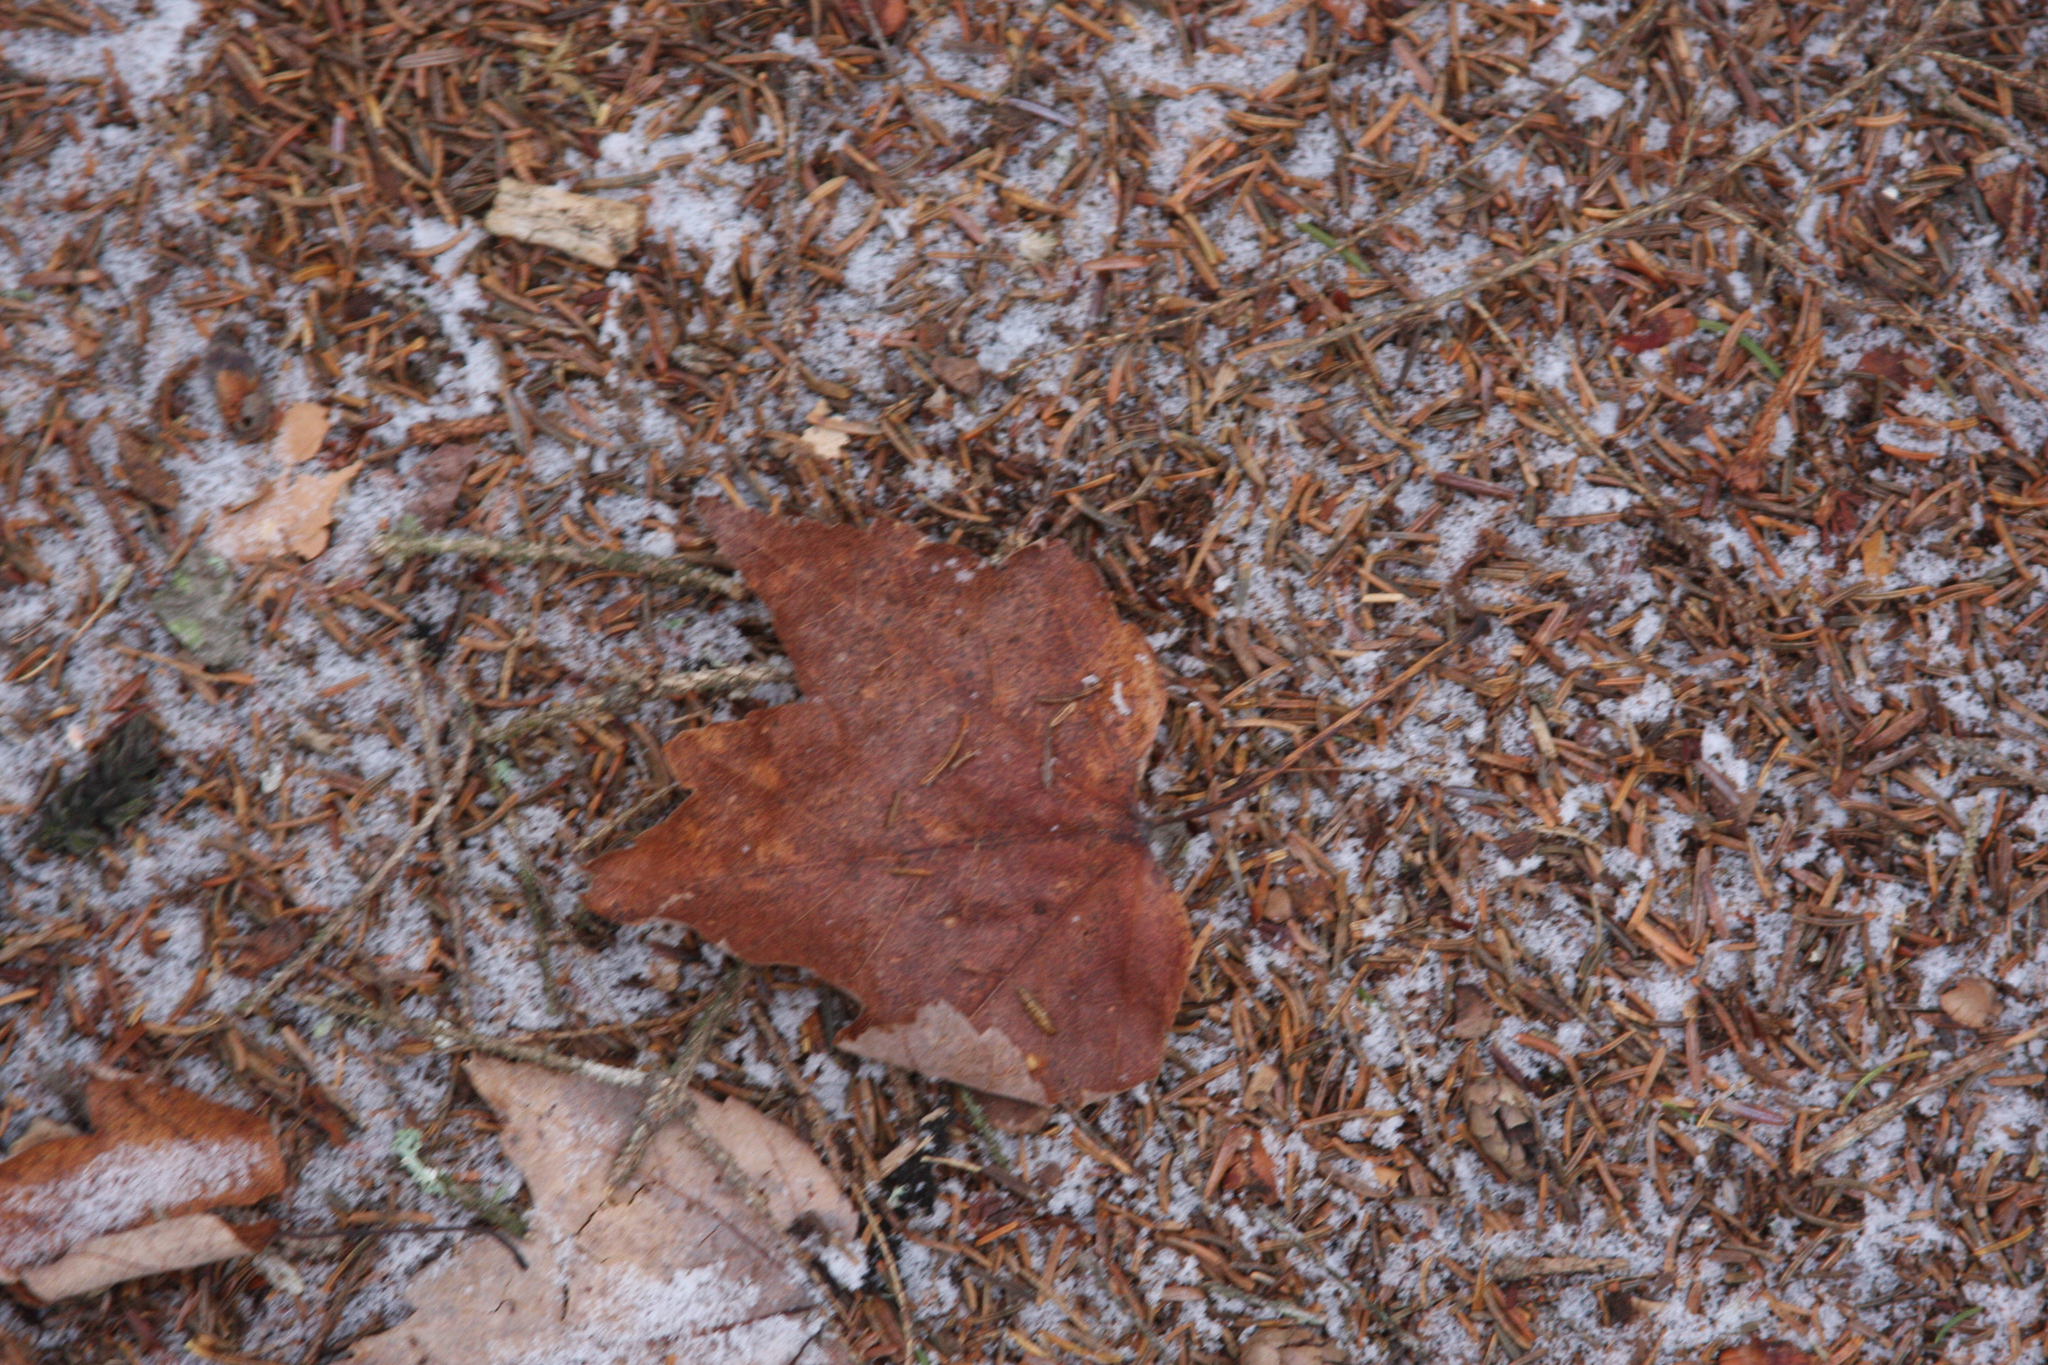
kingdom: Plantae
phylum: Tracheophyta
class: Magnoliopsida
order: Sapindales
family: Sapindaceae
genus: Acer
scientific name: Acer rubrum
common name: Red maple
